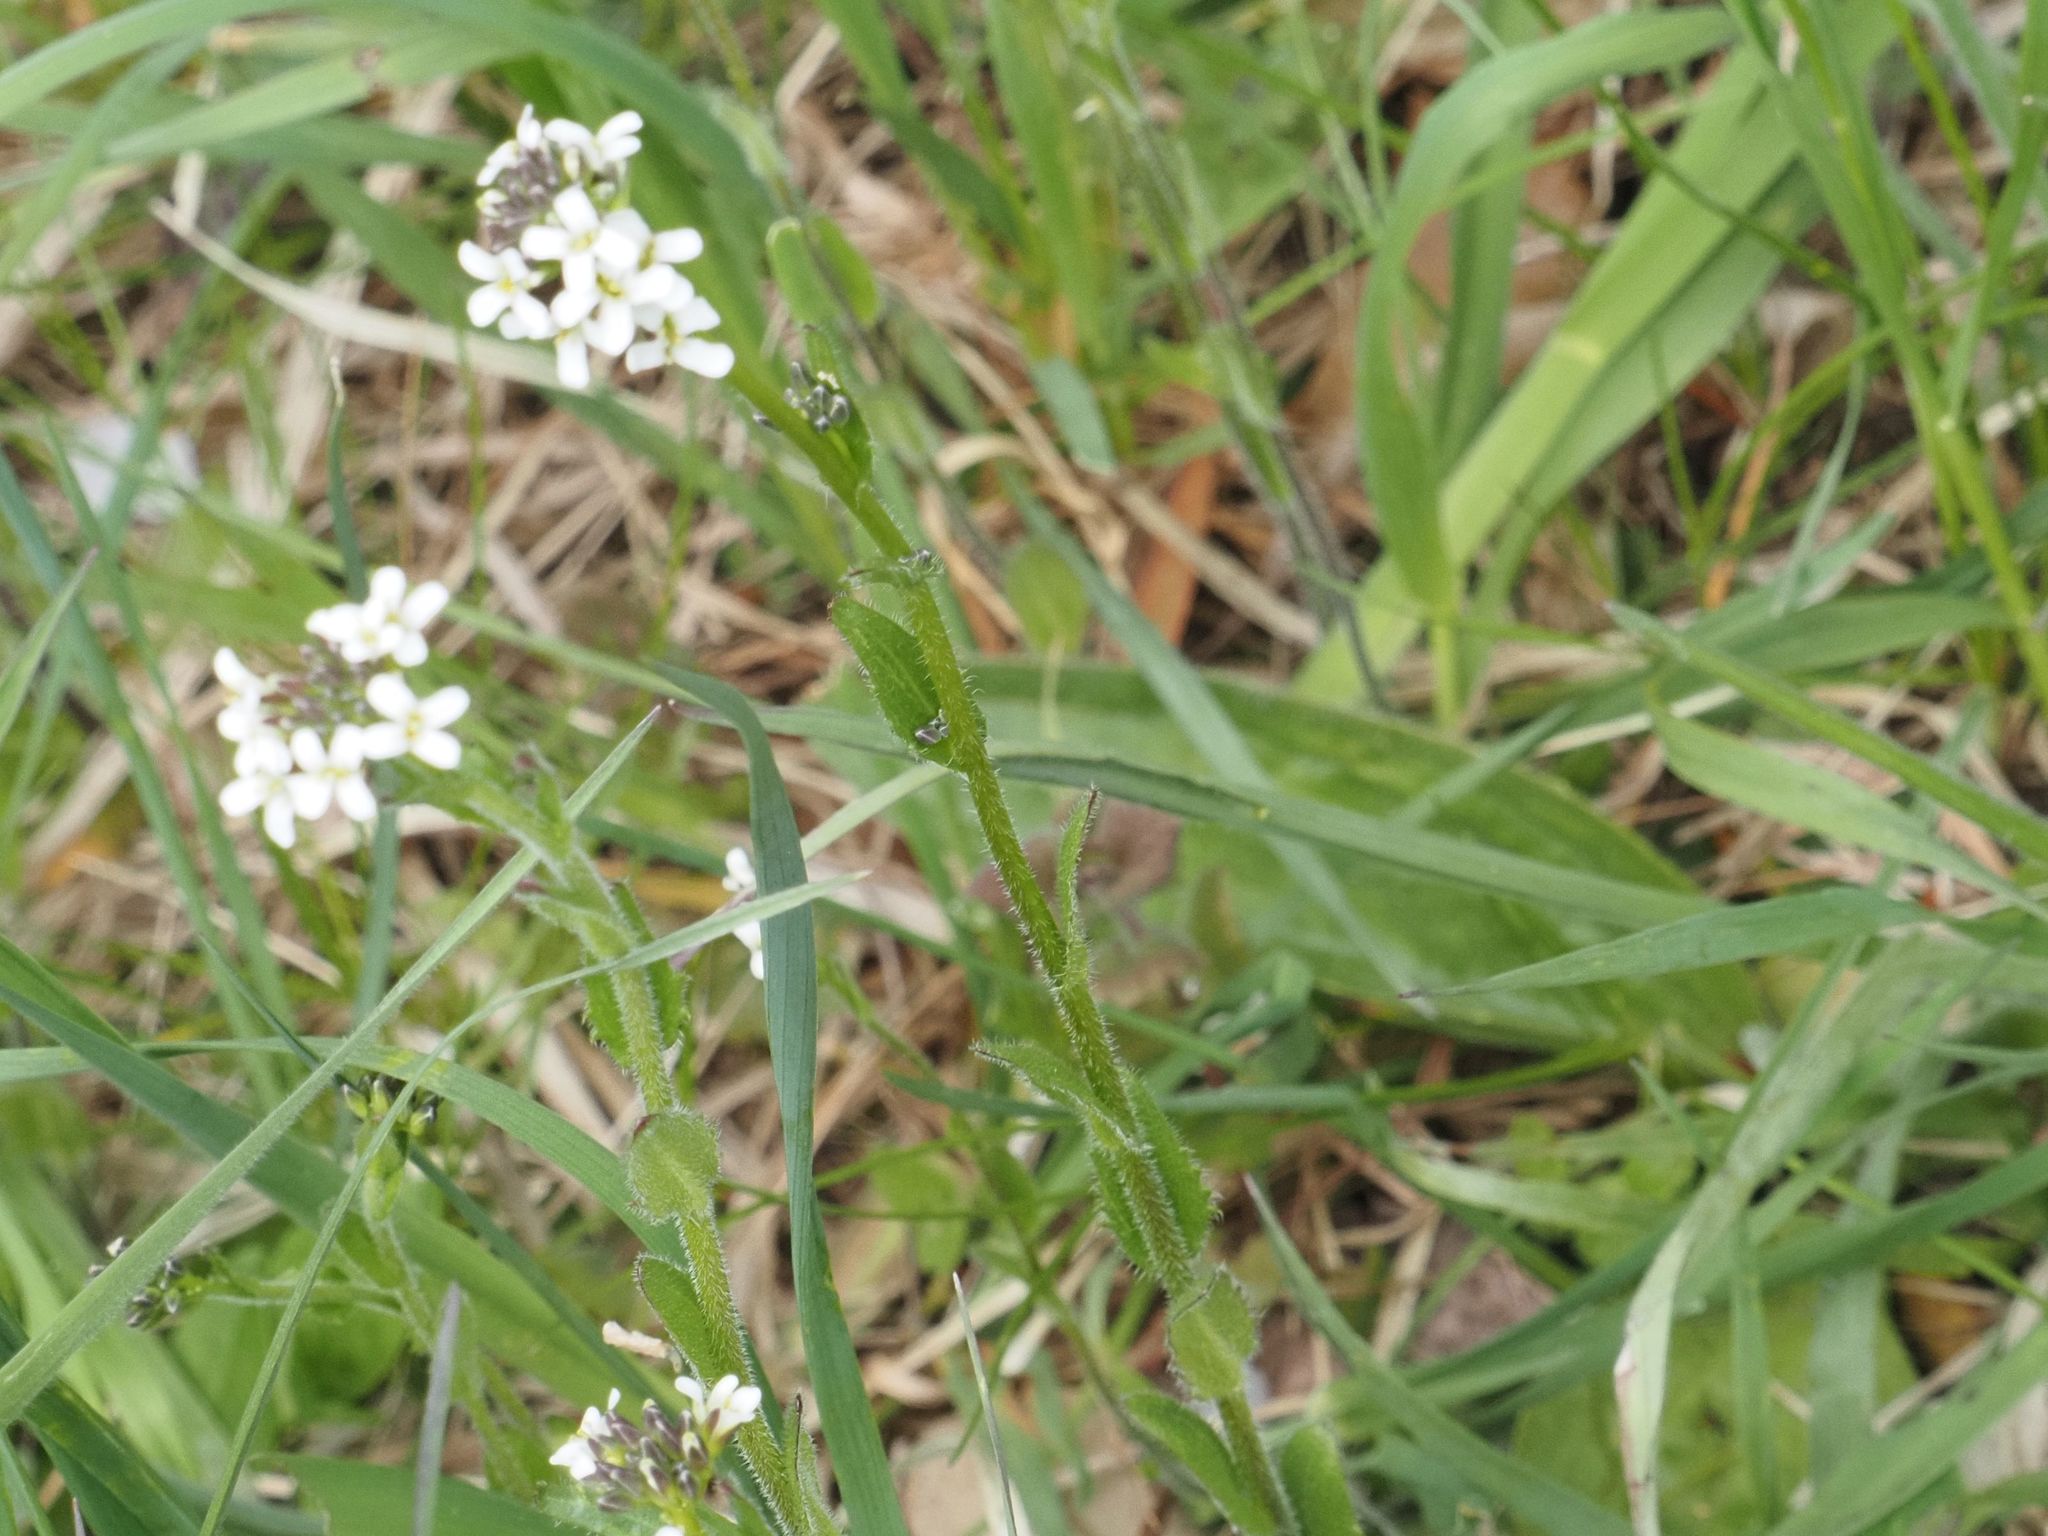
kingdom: Plantae
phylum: Tracheophyta
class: Magnoliopsida
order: Brassicales
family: Brassicaceae
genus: Arabis
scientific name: Arabis hirsuta
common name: Hairy rock-cress
